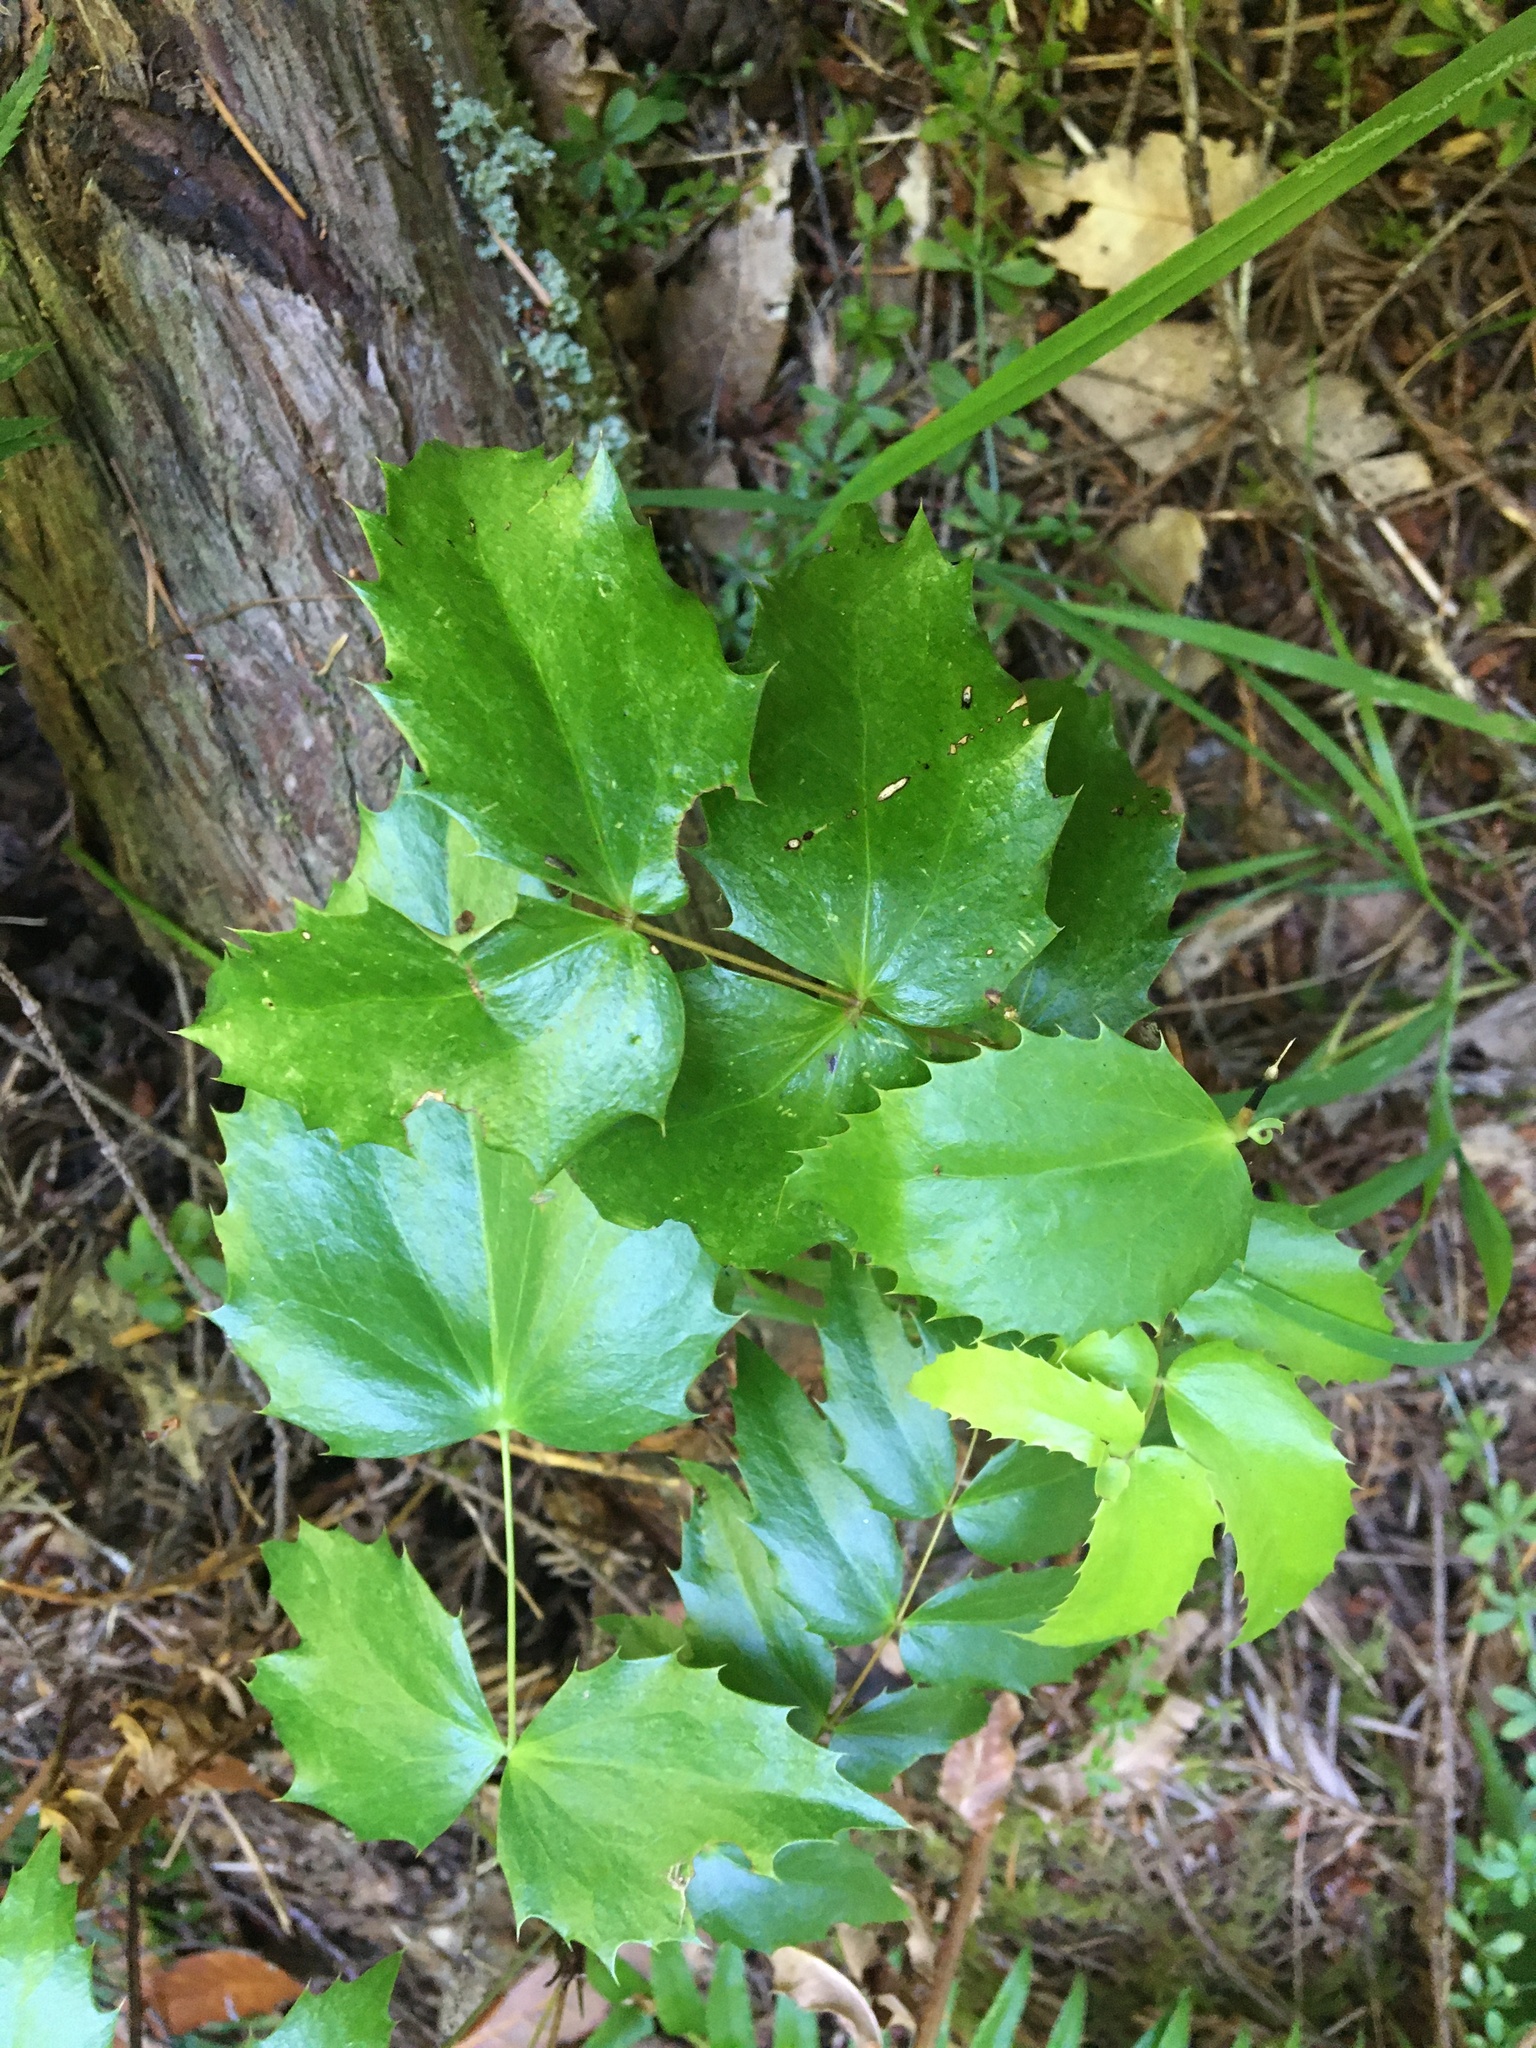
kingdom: Plantae
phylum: Tracheophyta
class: Magnoliopsida
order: Ranunculales
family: Berberidaceae
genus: Mahonia
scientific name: Mahonia nervosa
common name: Cascade oregon-grape
